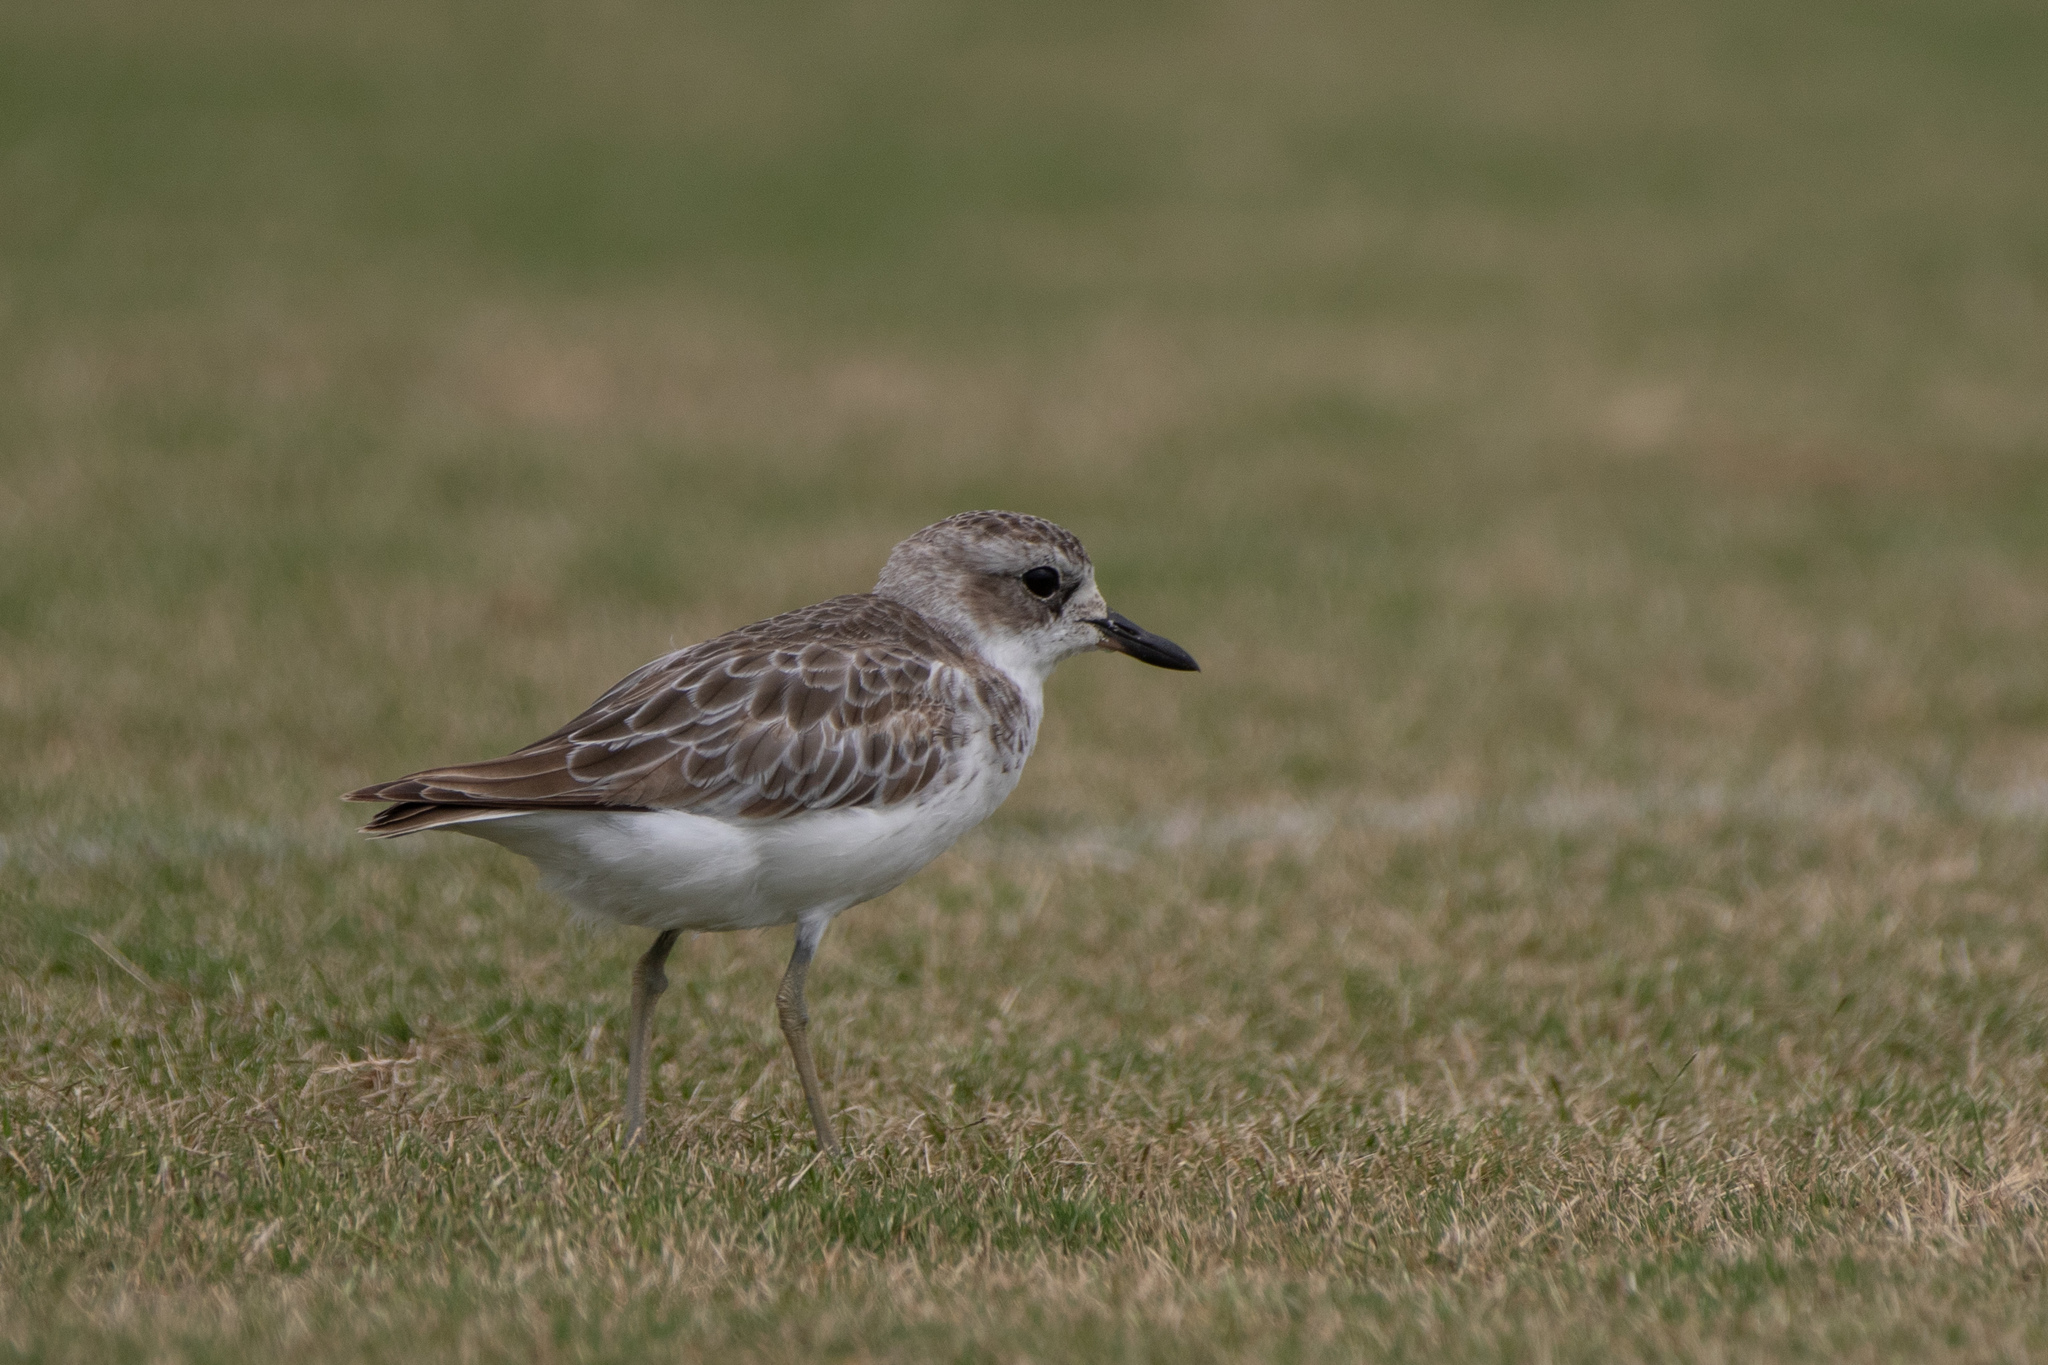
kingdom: Animalia
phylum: Chordata
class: Aves
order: Charadriiformes
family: Charadriidae
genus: Anarhynchus
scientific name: Anarhynchus
